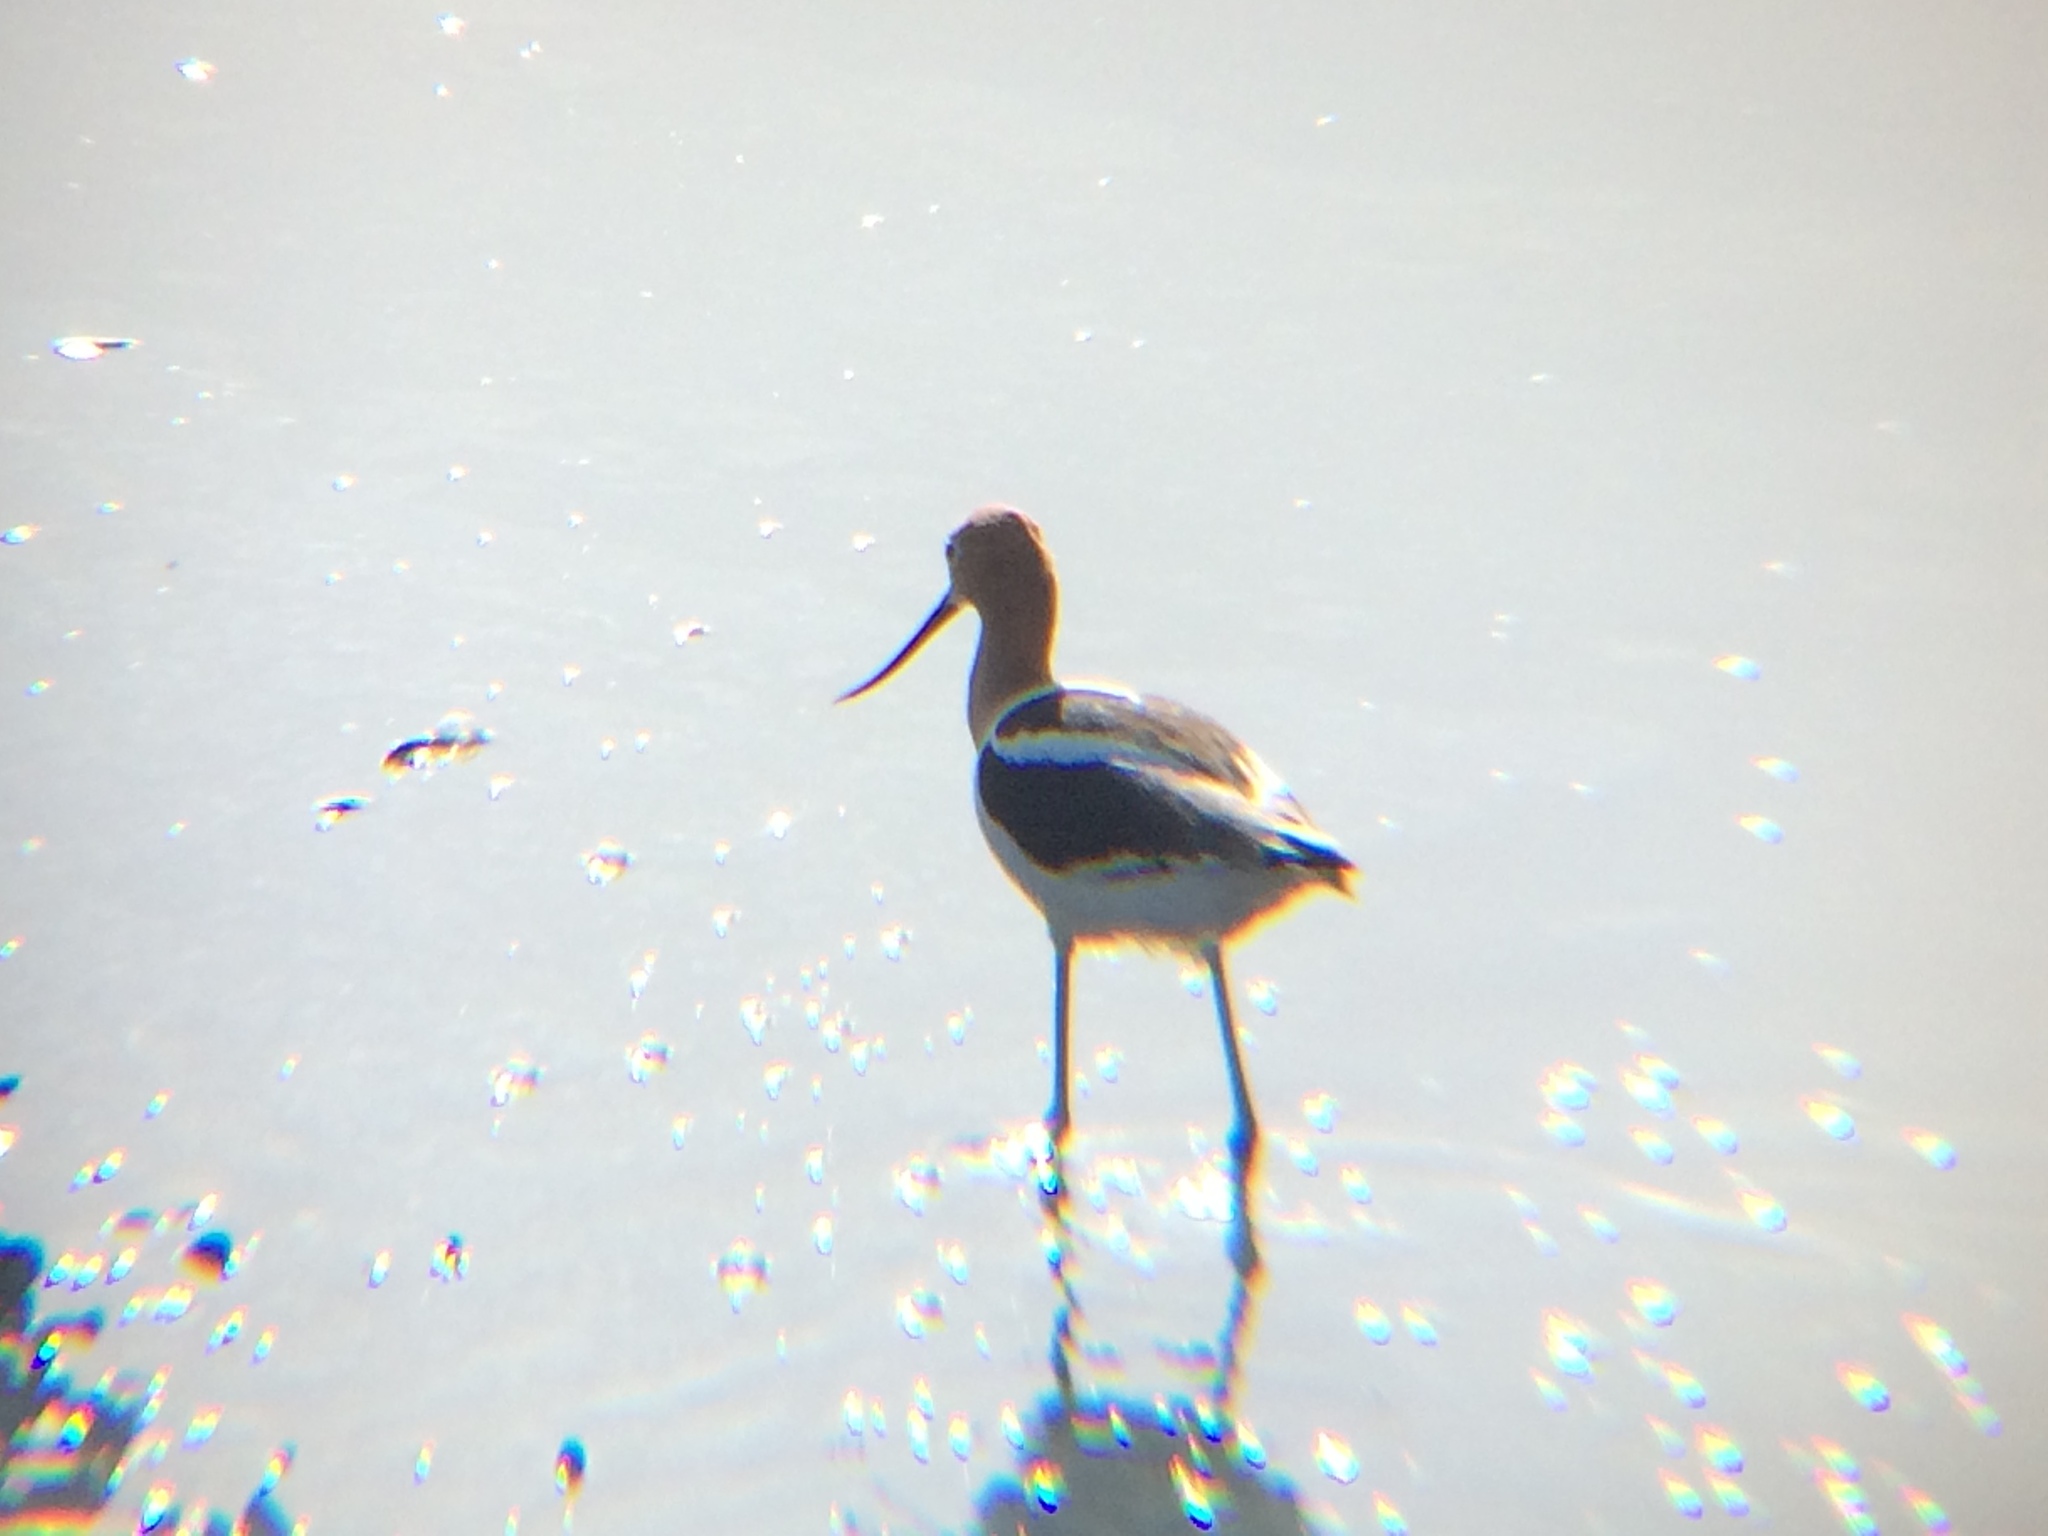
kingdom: Animalia
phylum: Chordata
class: Aves
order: Charadriiformes
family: Recurvirostridae
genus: Recurvirostra
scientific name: Recurvirostra americana
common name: American avocet
